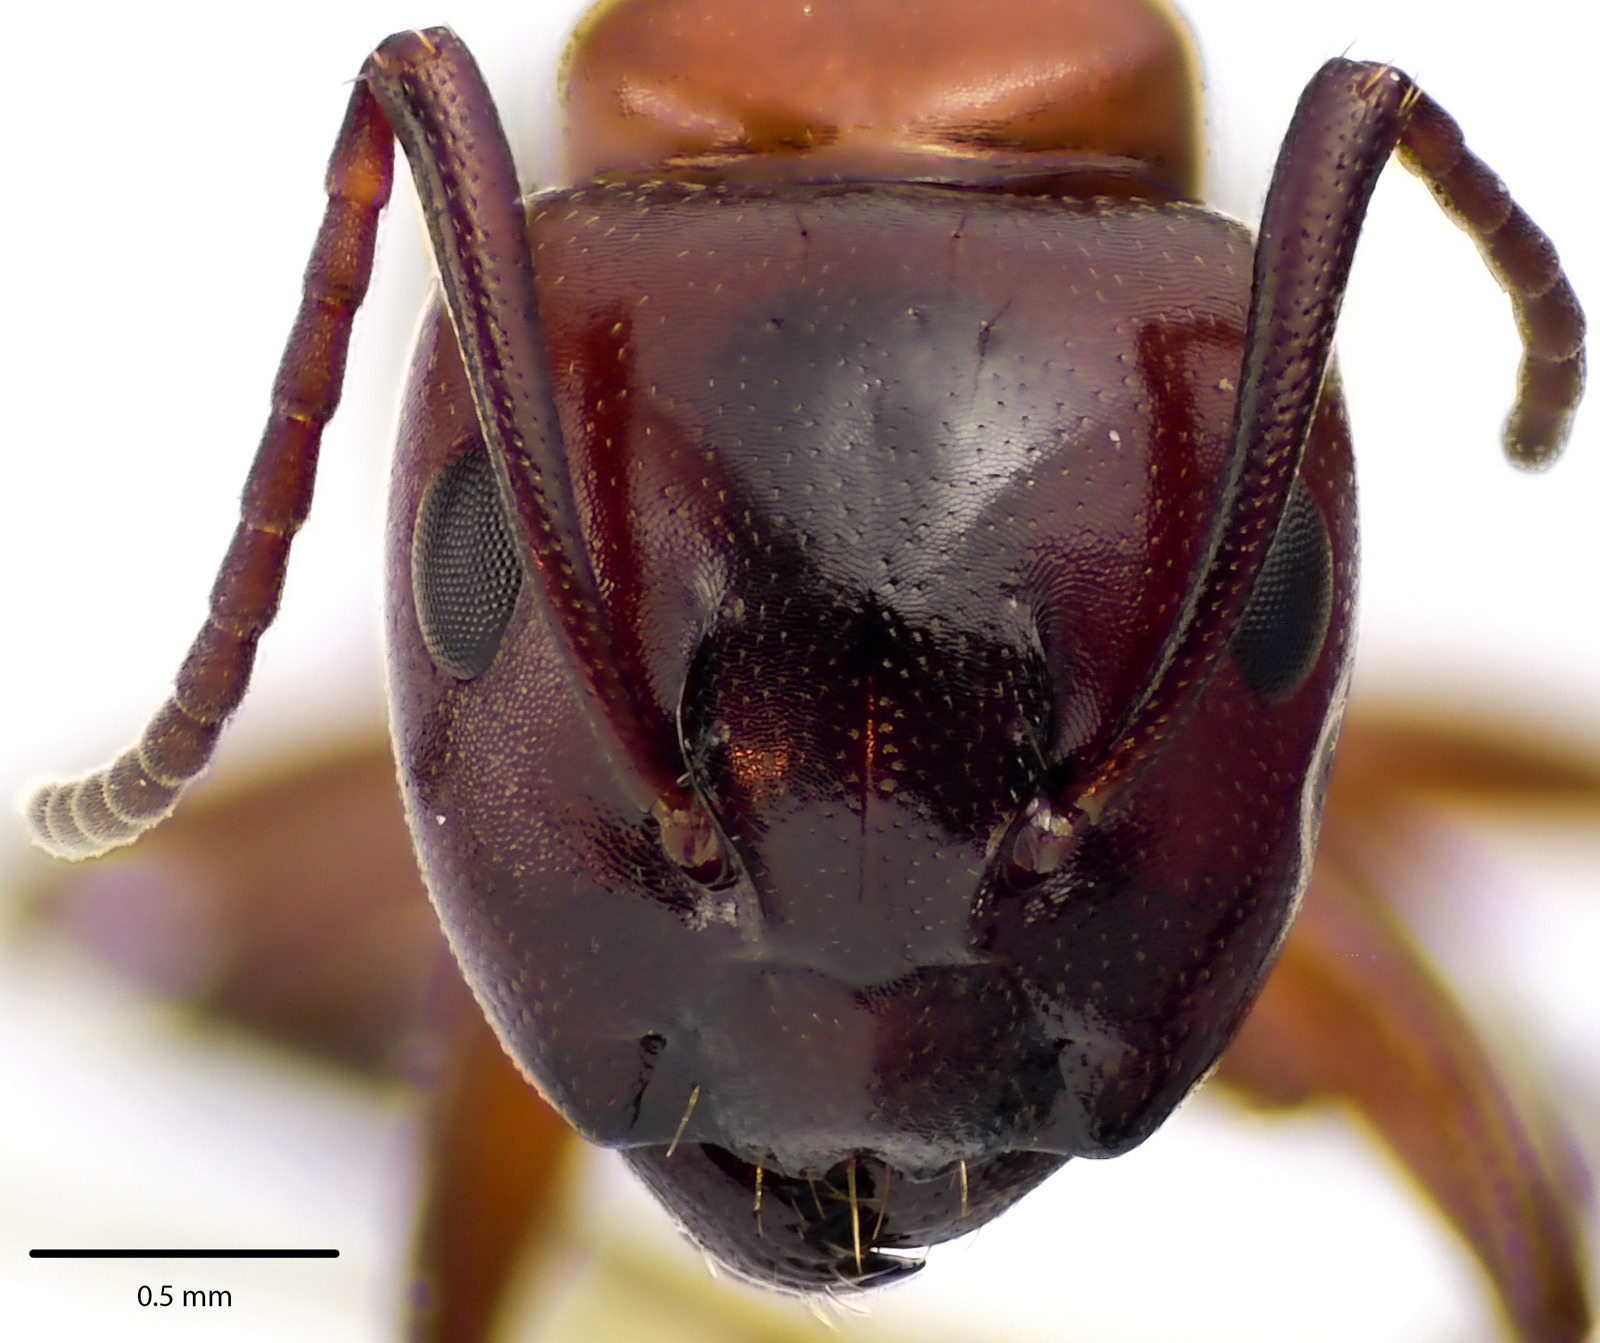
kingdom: Animalia
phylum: Arthropoda
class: Insecta
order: Hymenoptera
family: Formicidae
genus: Camponotus
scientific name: Camponotus essigi
